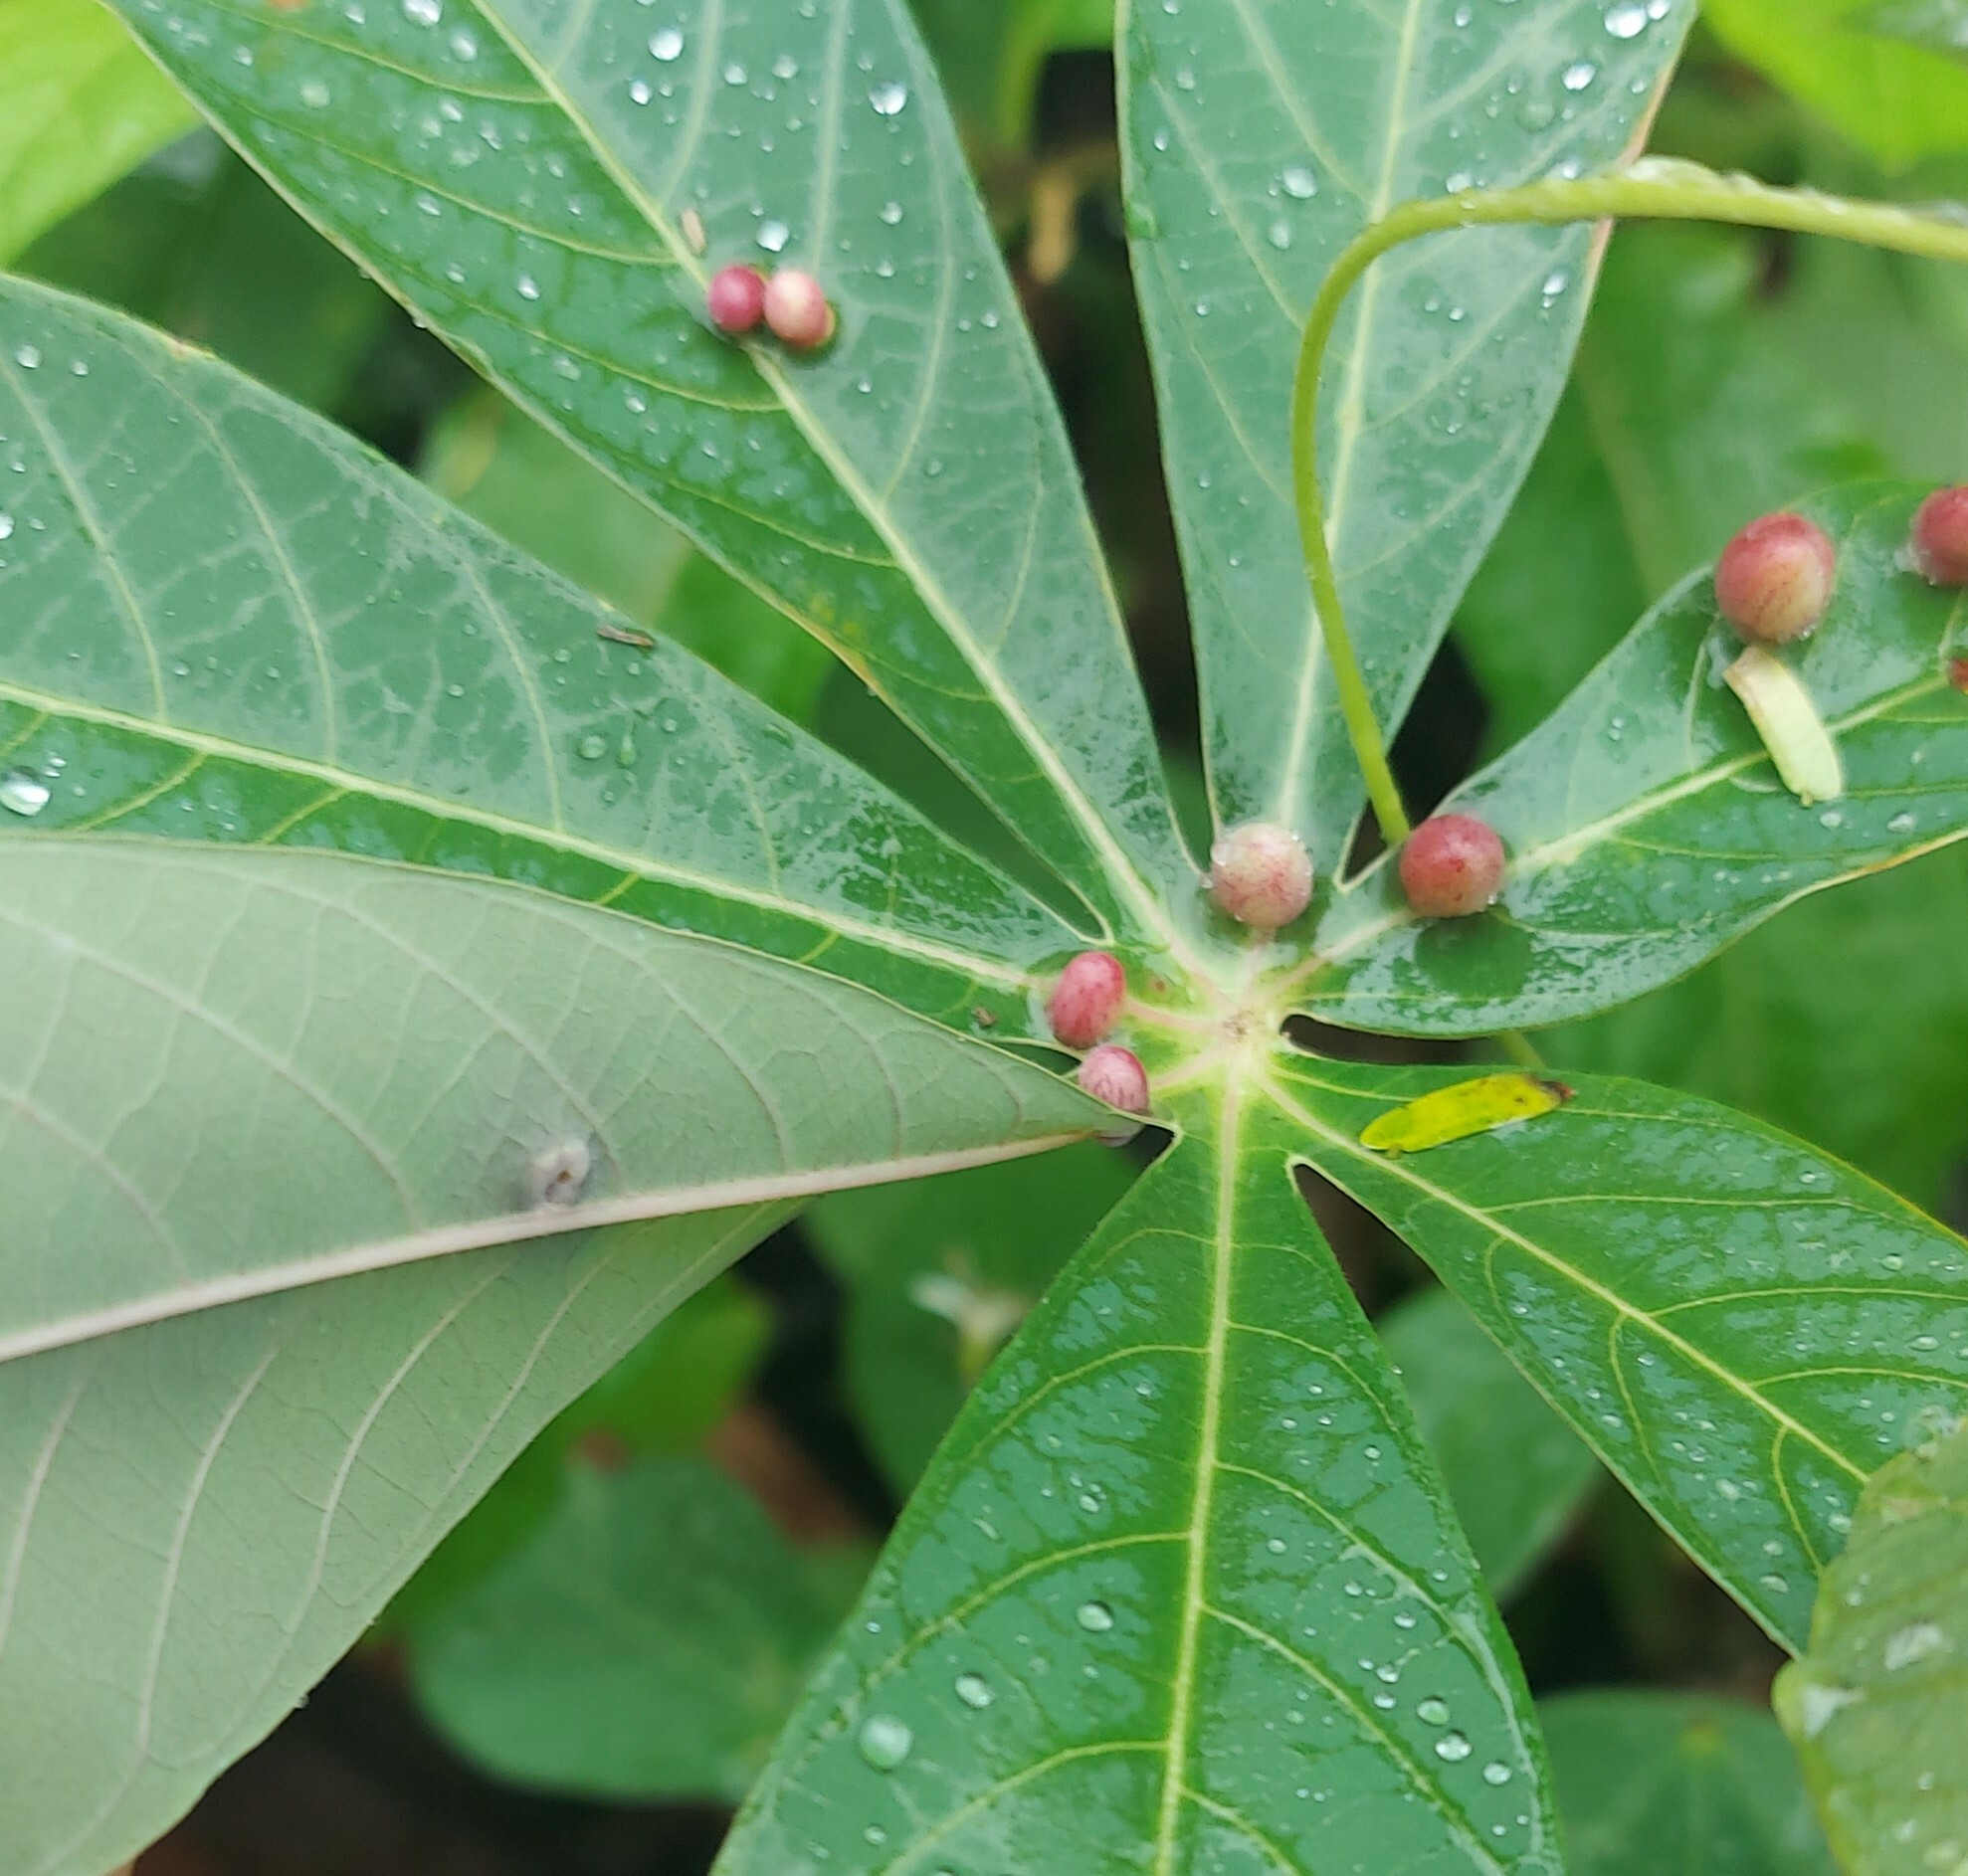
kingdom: Animalia
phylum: Arthropoda
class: Insecta
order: Diptera
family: Cecidomyiidae
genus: Iatrophobia
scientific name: Iatrophobia brasiliensis
